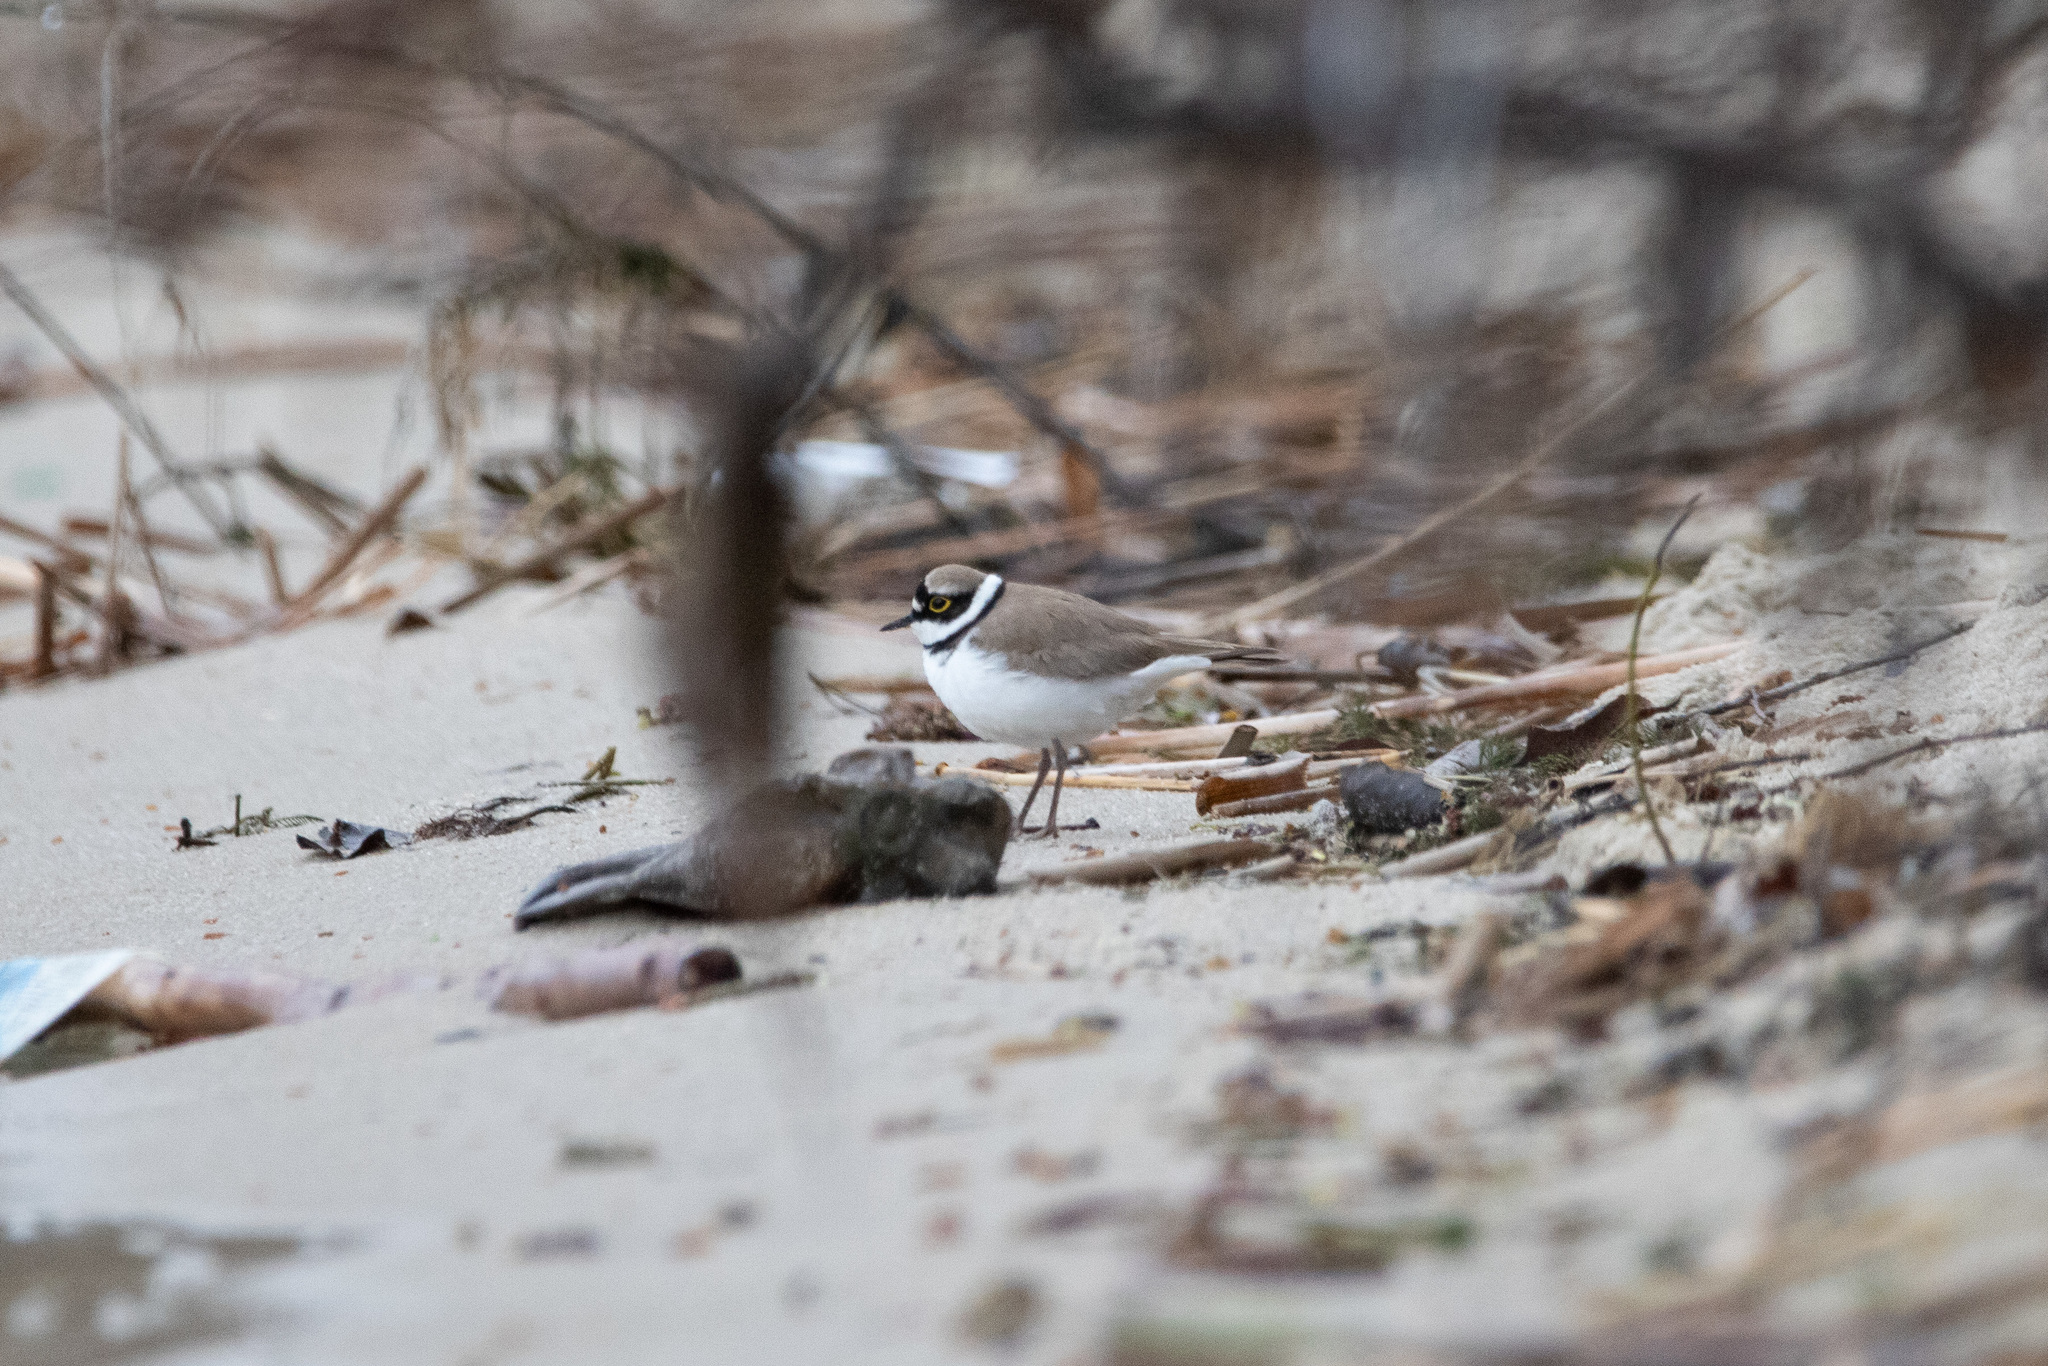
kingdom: Animalia
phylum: Chordata
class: Aves
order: Charadriiformes
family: Charadriidae
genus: Charadrius
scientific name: Charadrius dubius
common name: Little ringed plover
